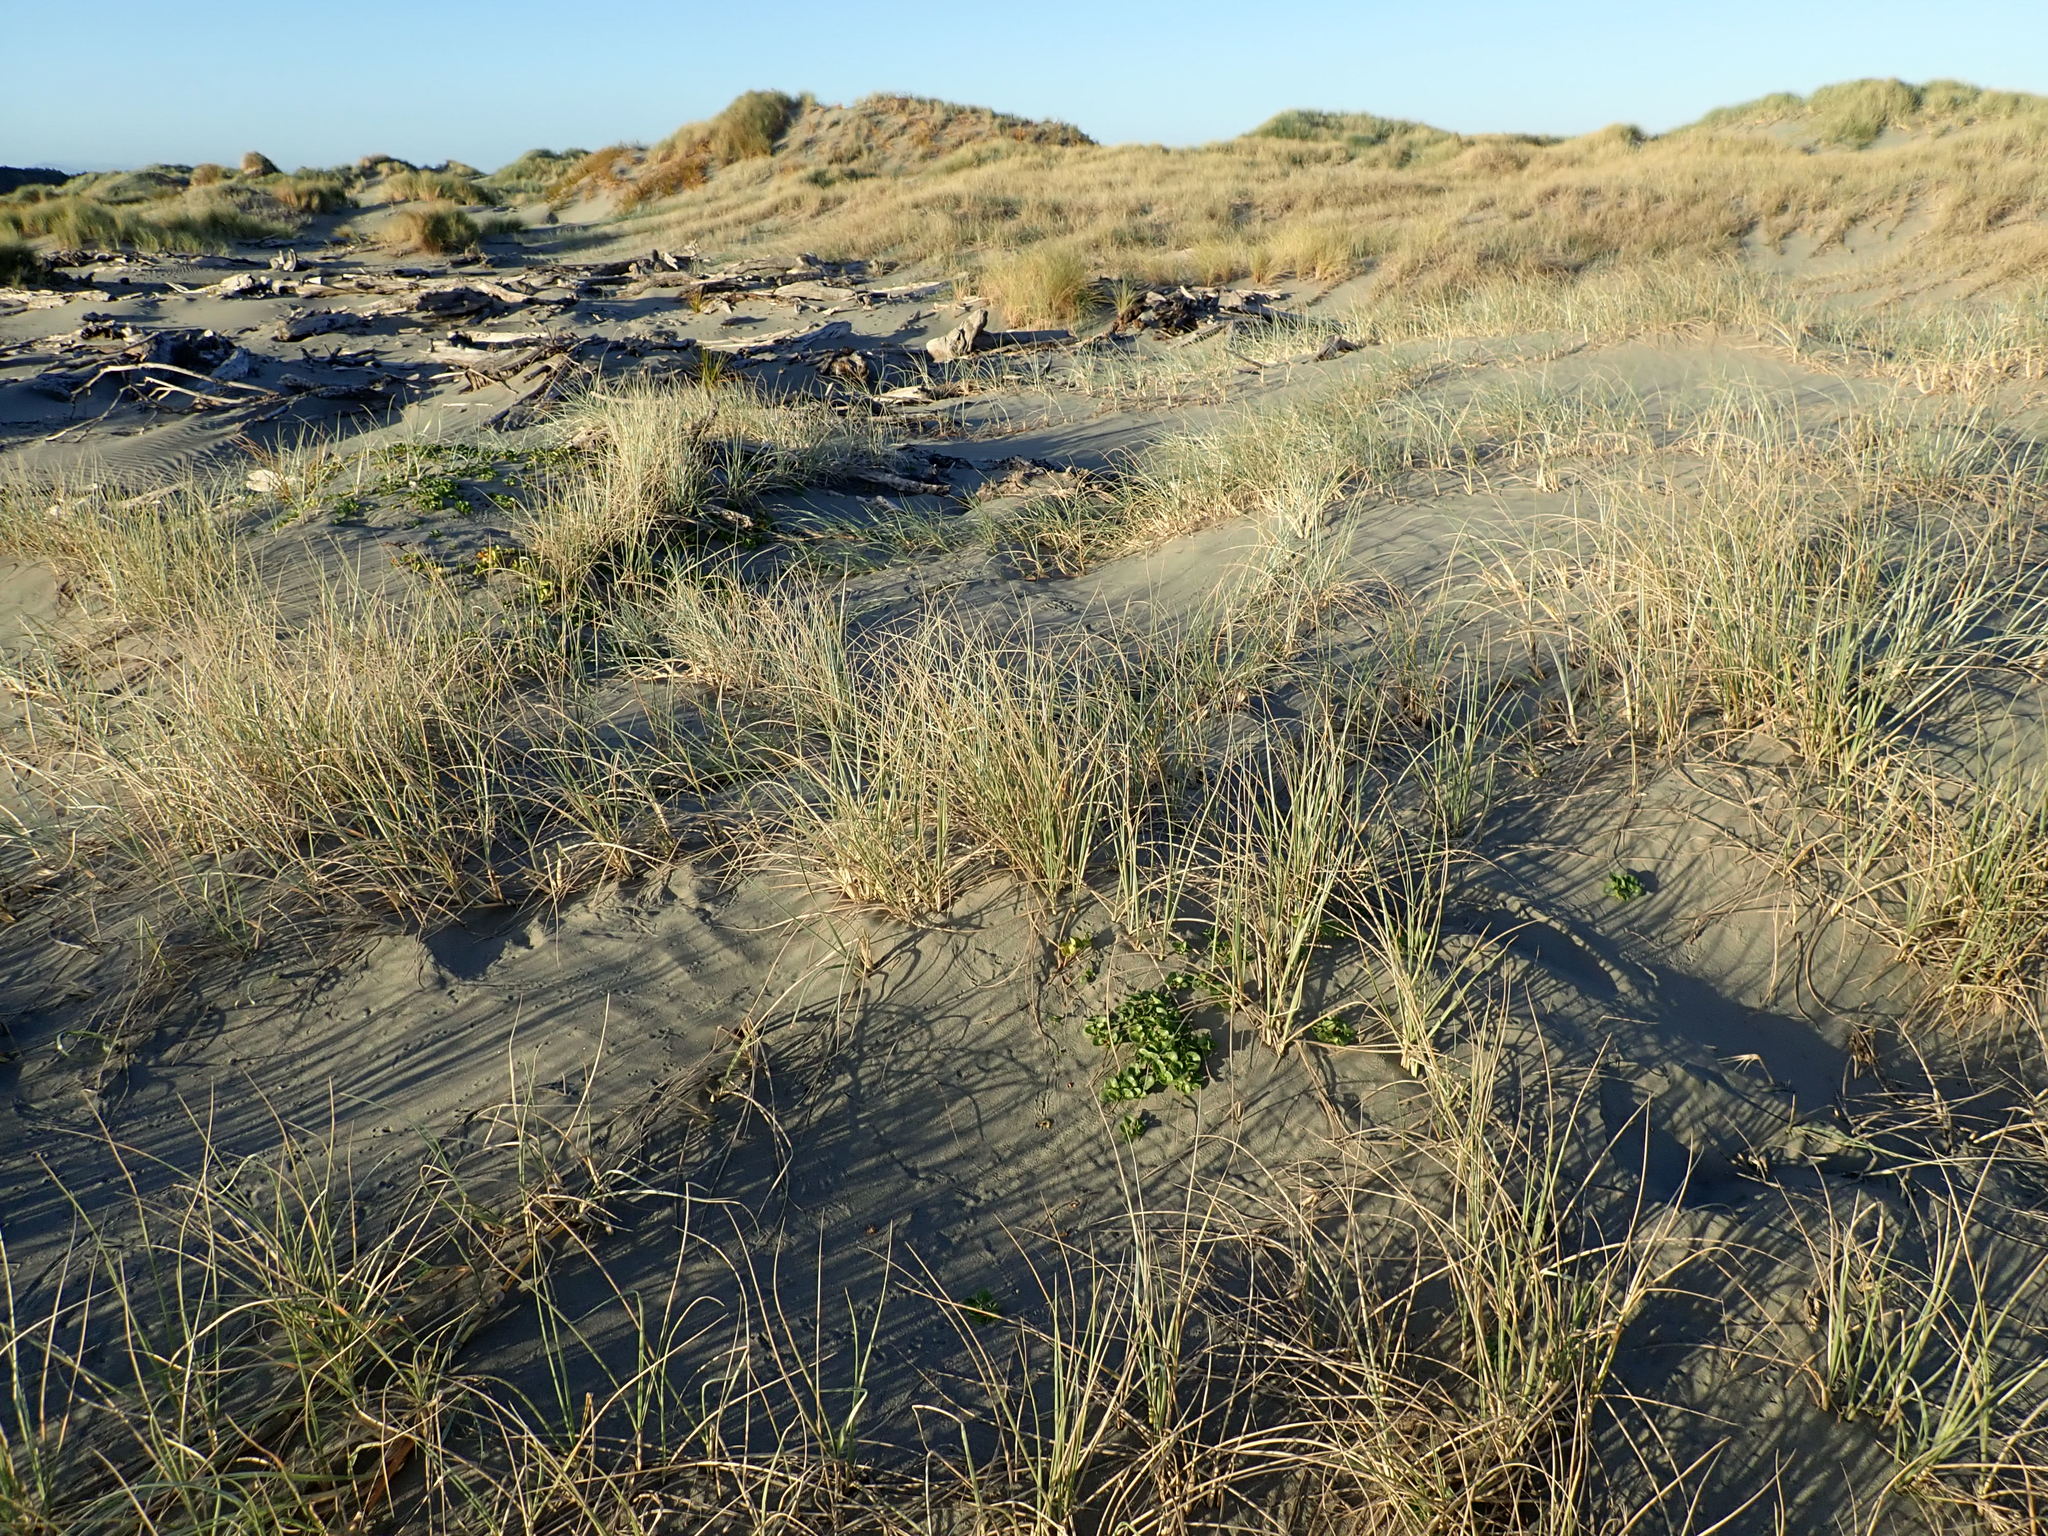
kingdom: Plantae
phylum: Tracheophyta
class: Magnoliopsida
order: Solanales
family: Convolvulaceae
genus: Calystegia
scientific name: Calystegia soldanella
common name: Sea bindweed
